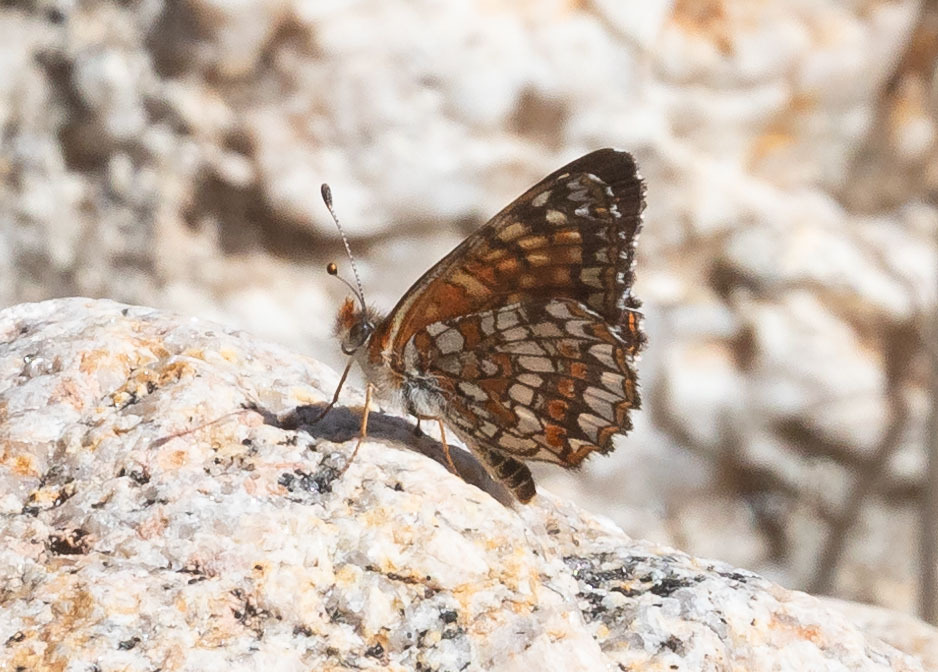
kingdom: Animalia
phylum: Arthropoda
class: Insecta
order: Lepidoptera
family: Nymphalidae
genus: Chlosyne
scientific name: Chlosyne gabbii
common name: Gabb's checkerspot
